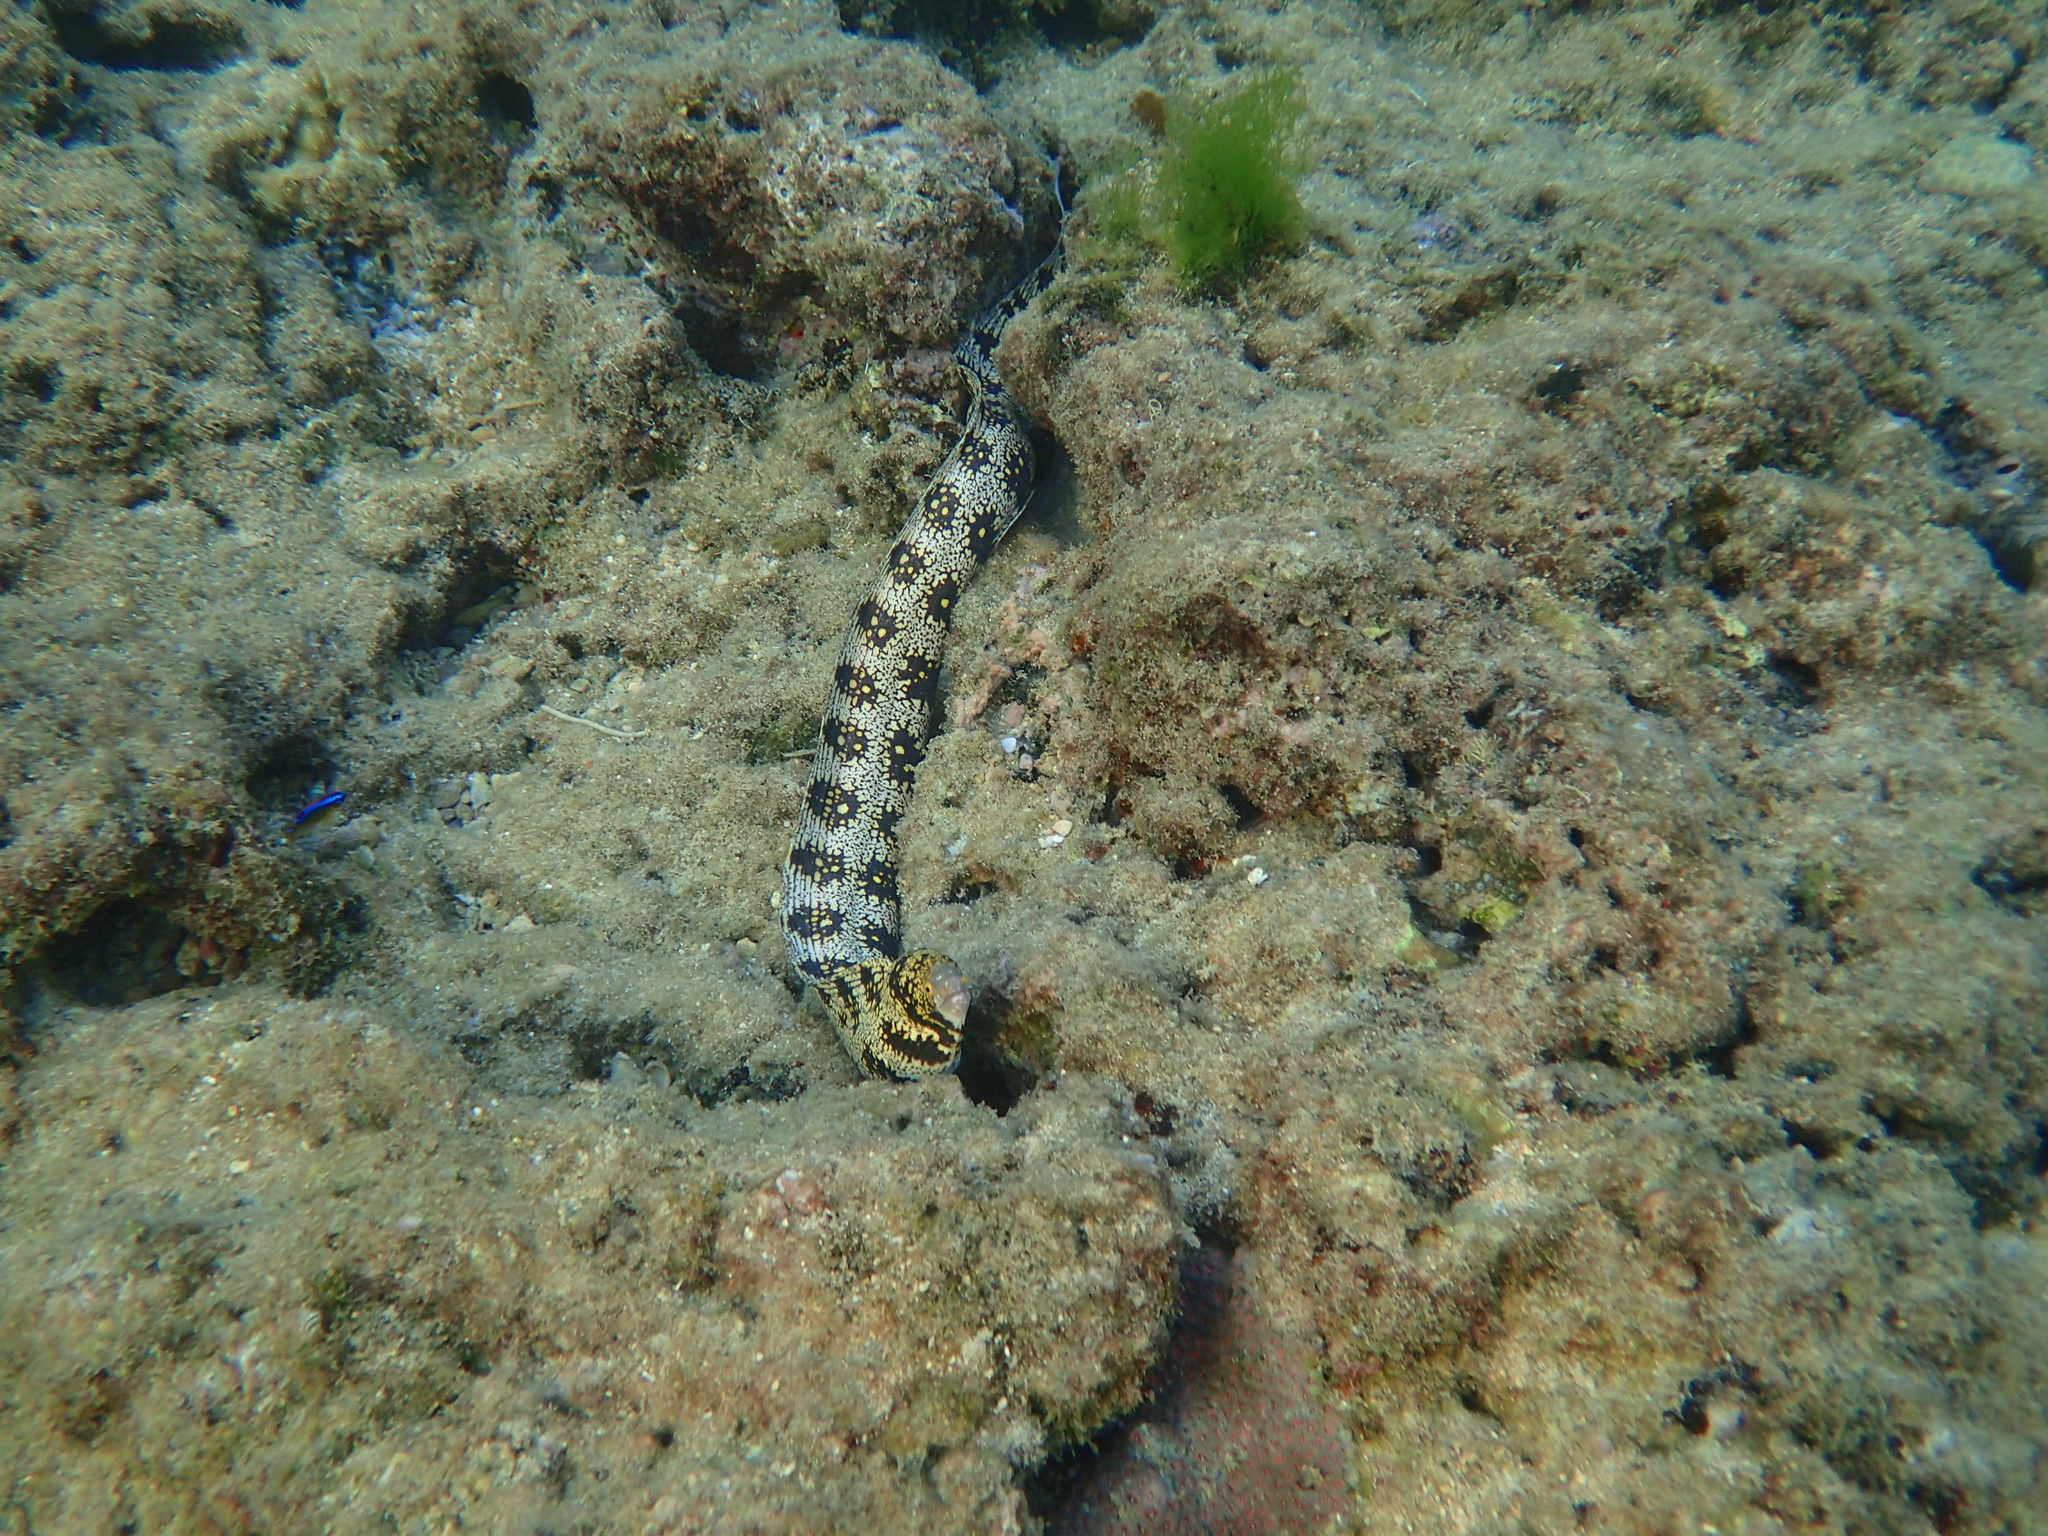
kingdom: Animalia
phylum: Chordata
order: Anguilliformes
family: Muraenidae
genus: Echidna
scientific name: Echidna nebulosa
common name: Snowflake moray
